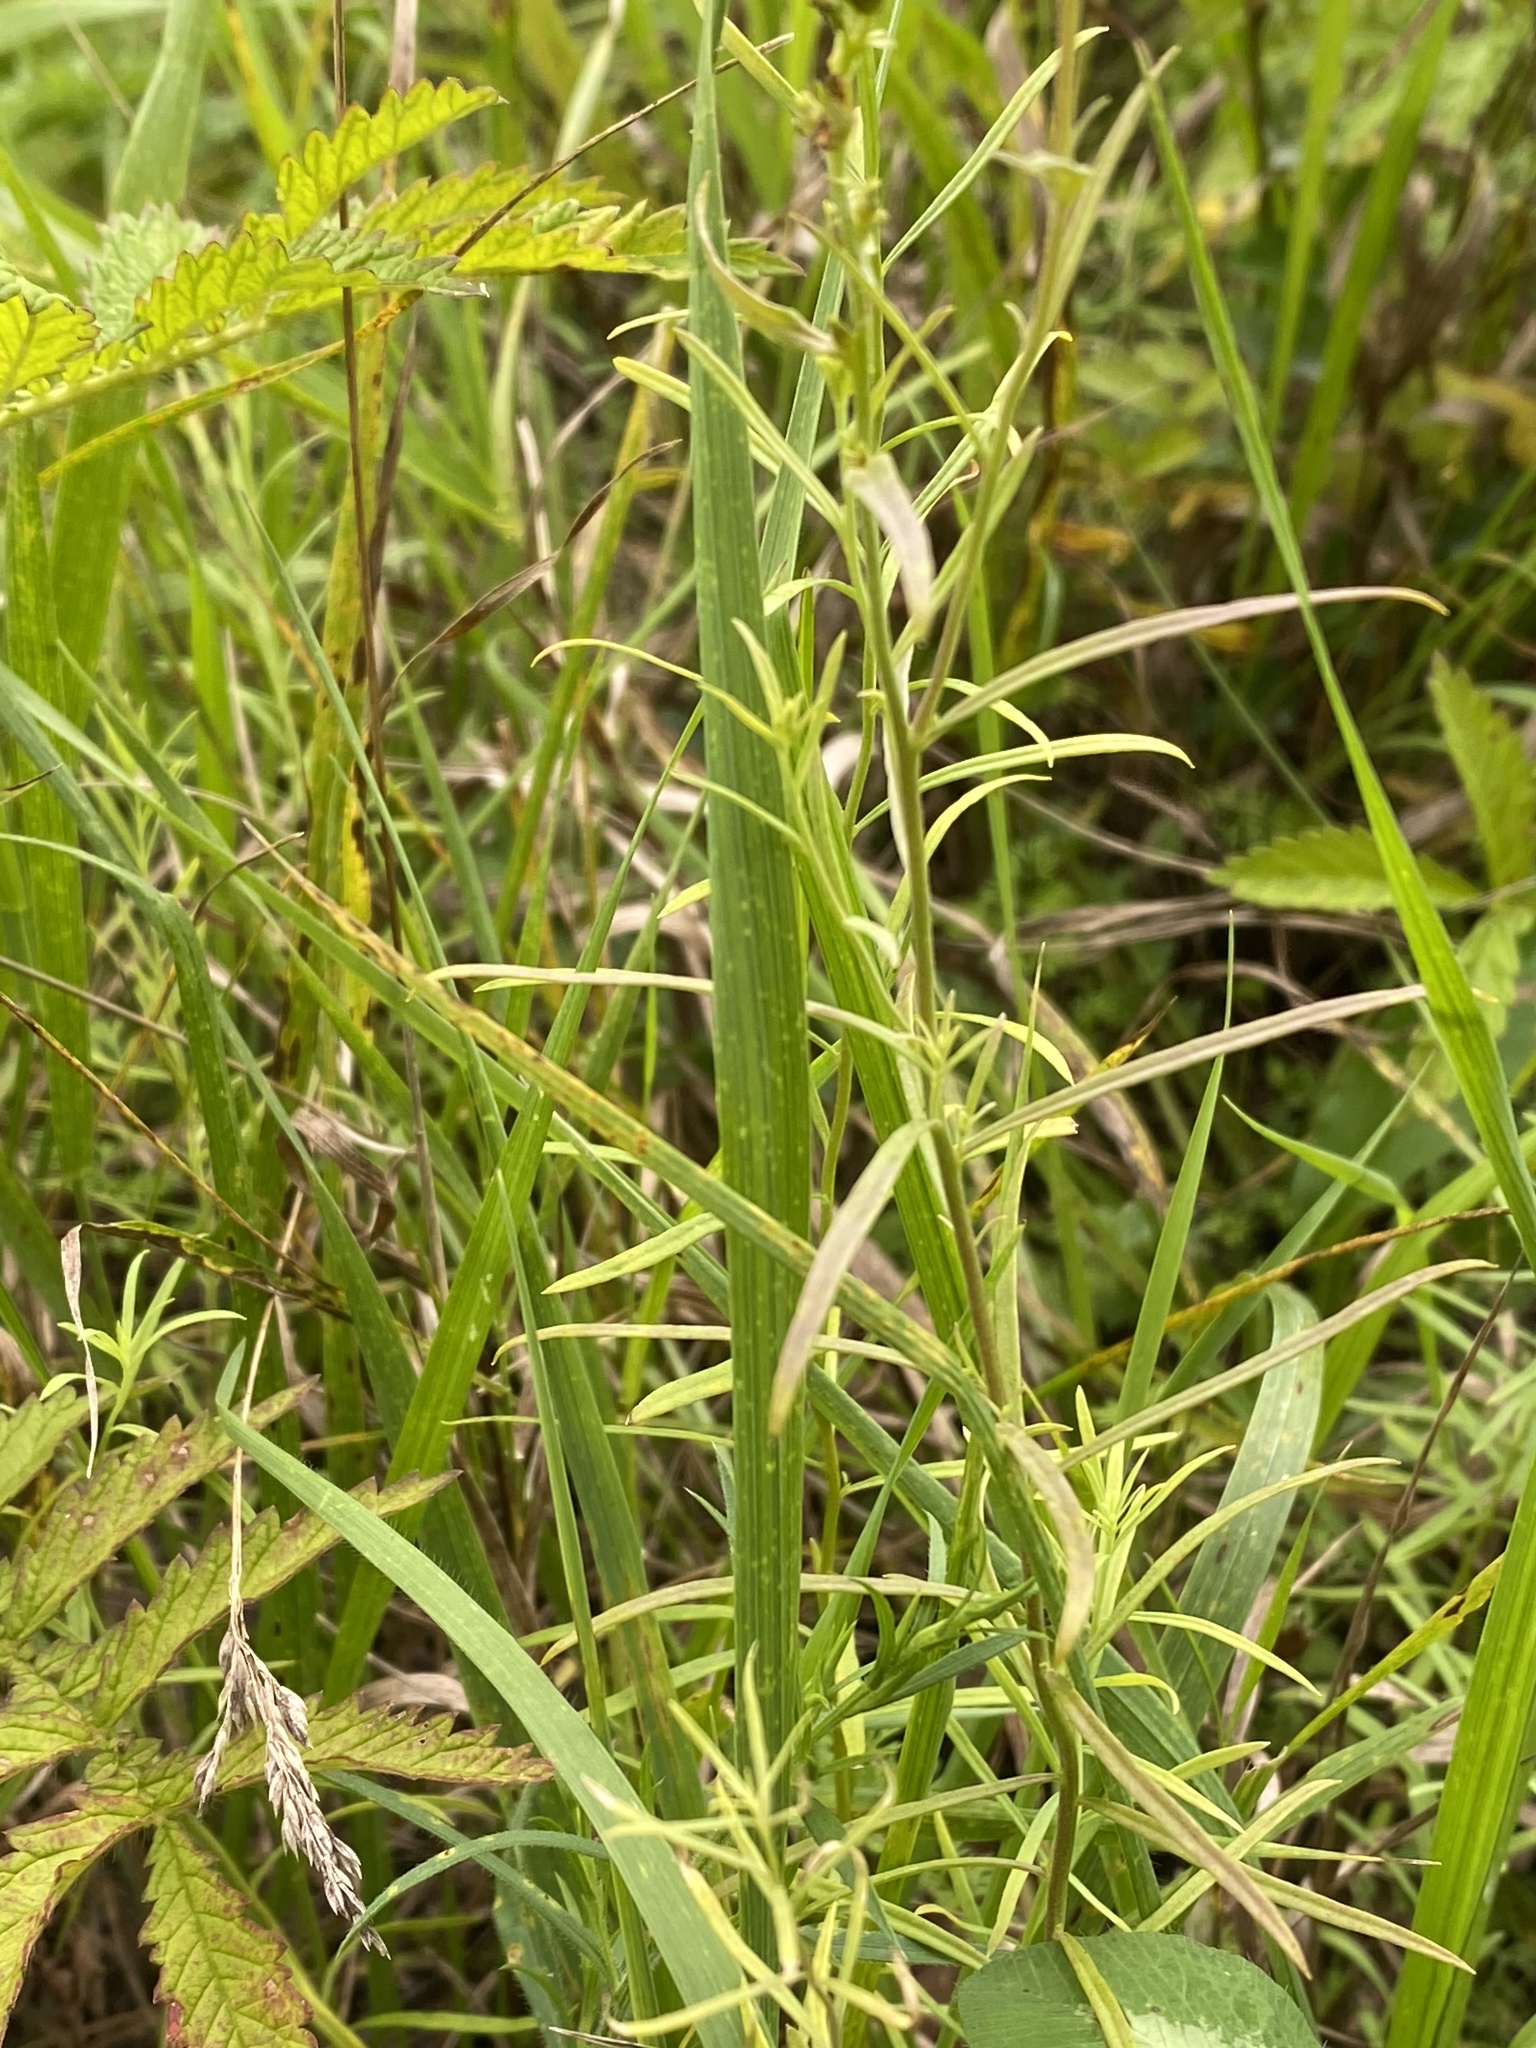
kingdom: Plantae
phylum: Tracheophyta
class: Magnoliopsida
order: Lamiales
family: Plantaginaceae
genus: Linaria
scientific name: Linaria vulgaris
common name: Butter and eggs
